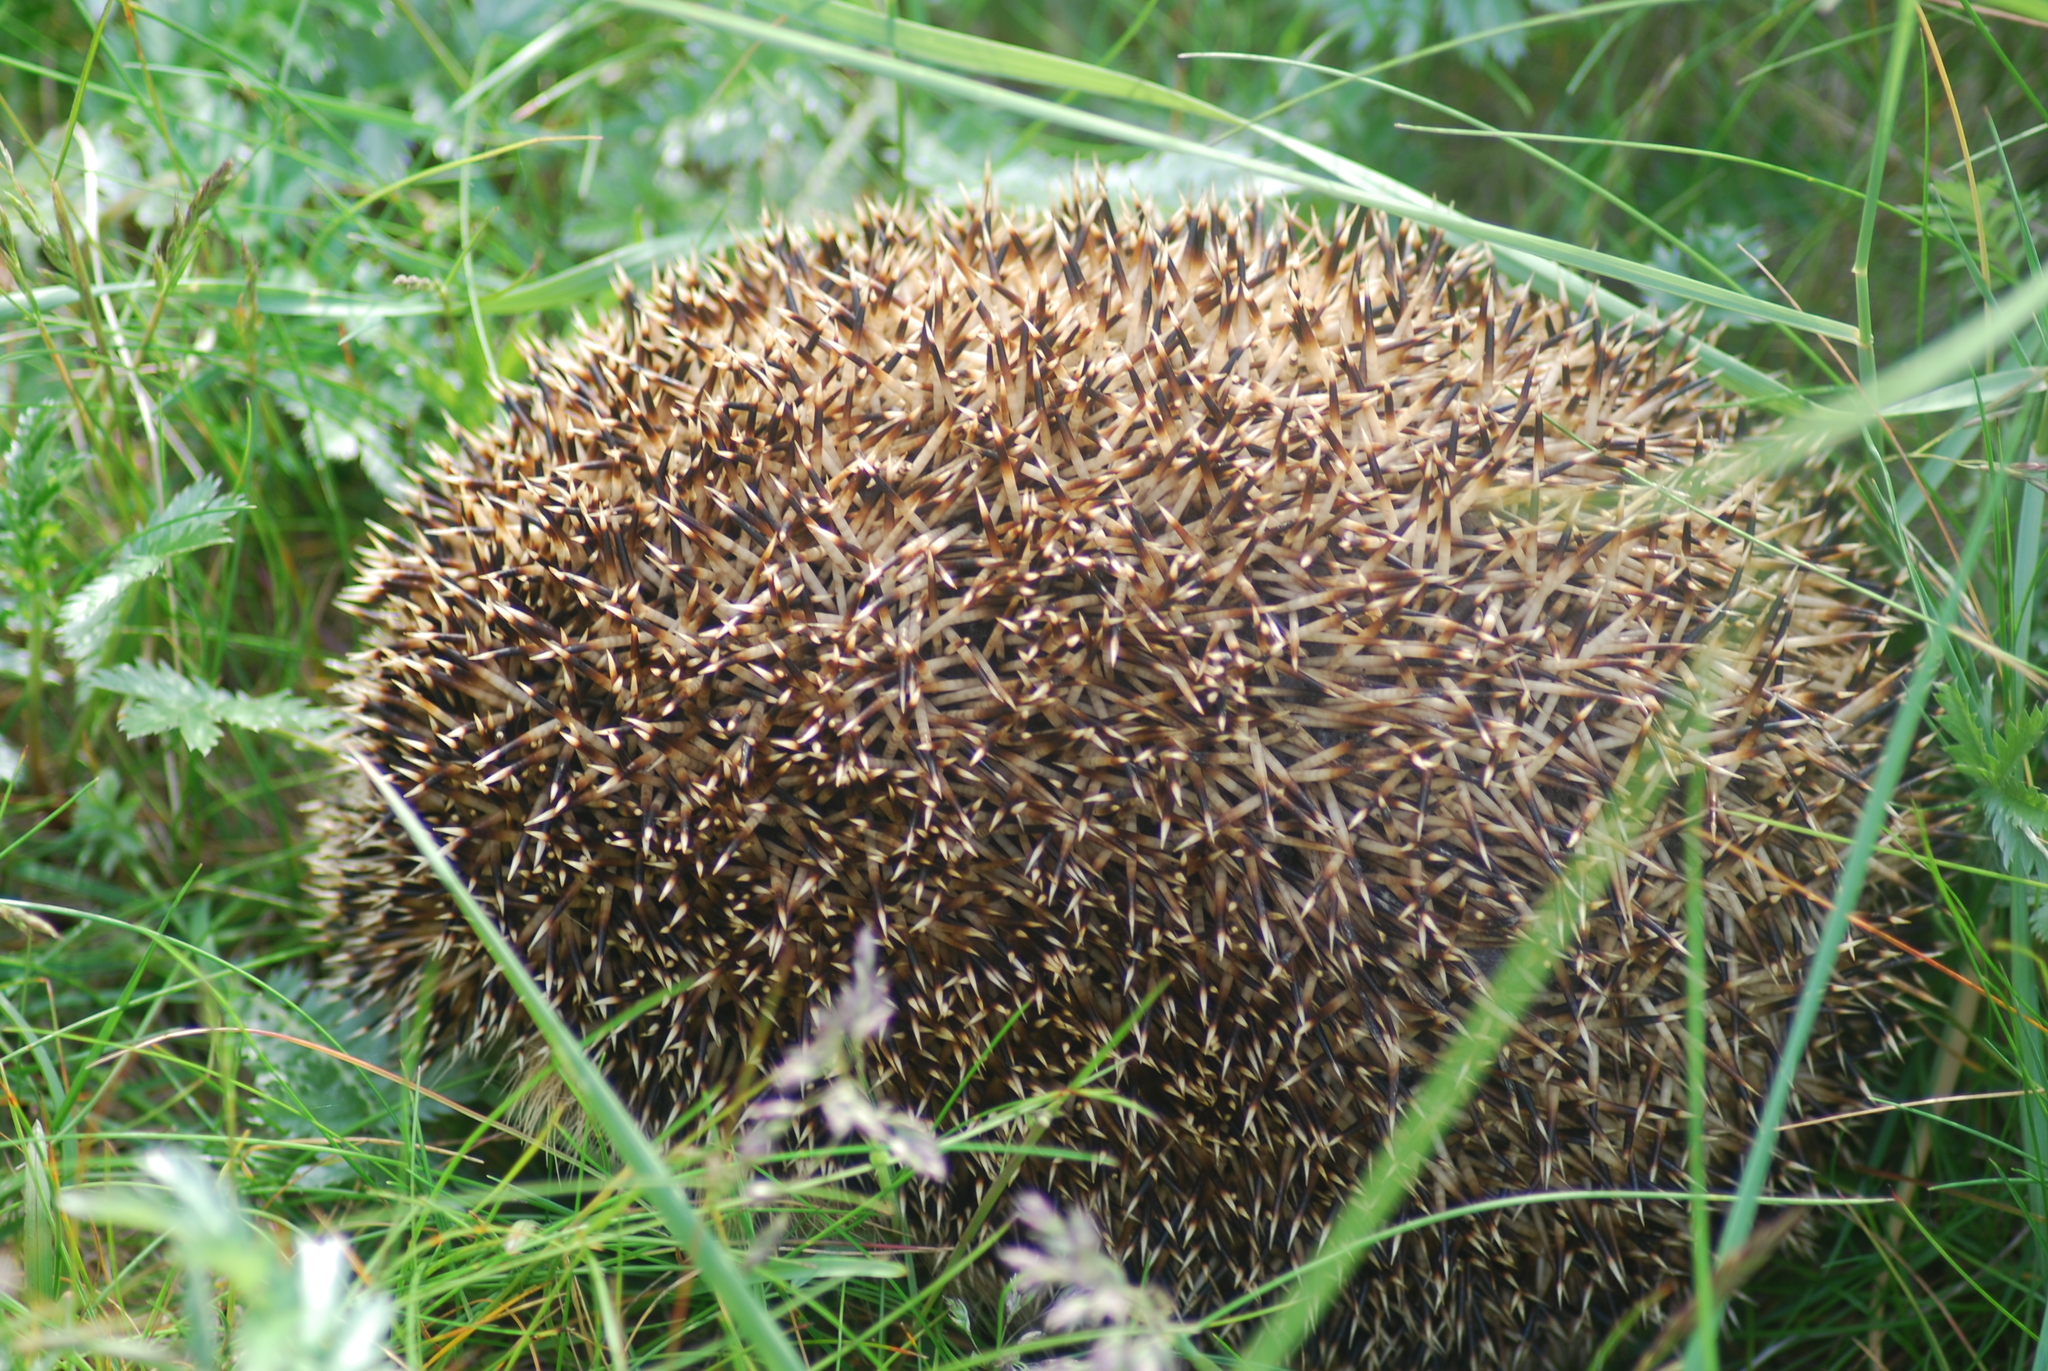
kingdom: Animalia
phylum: Chordata
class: Mammalia
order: Erinaceomorpha
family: Erinaceidae
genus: Erinaceus
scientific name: Erinaceus europaeus
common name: West european hedgehog
